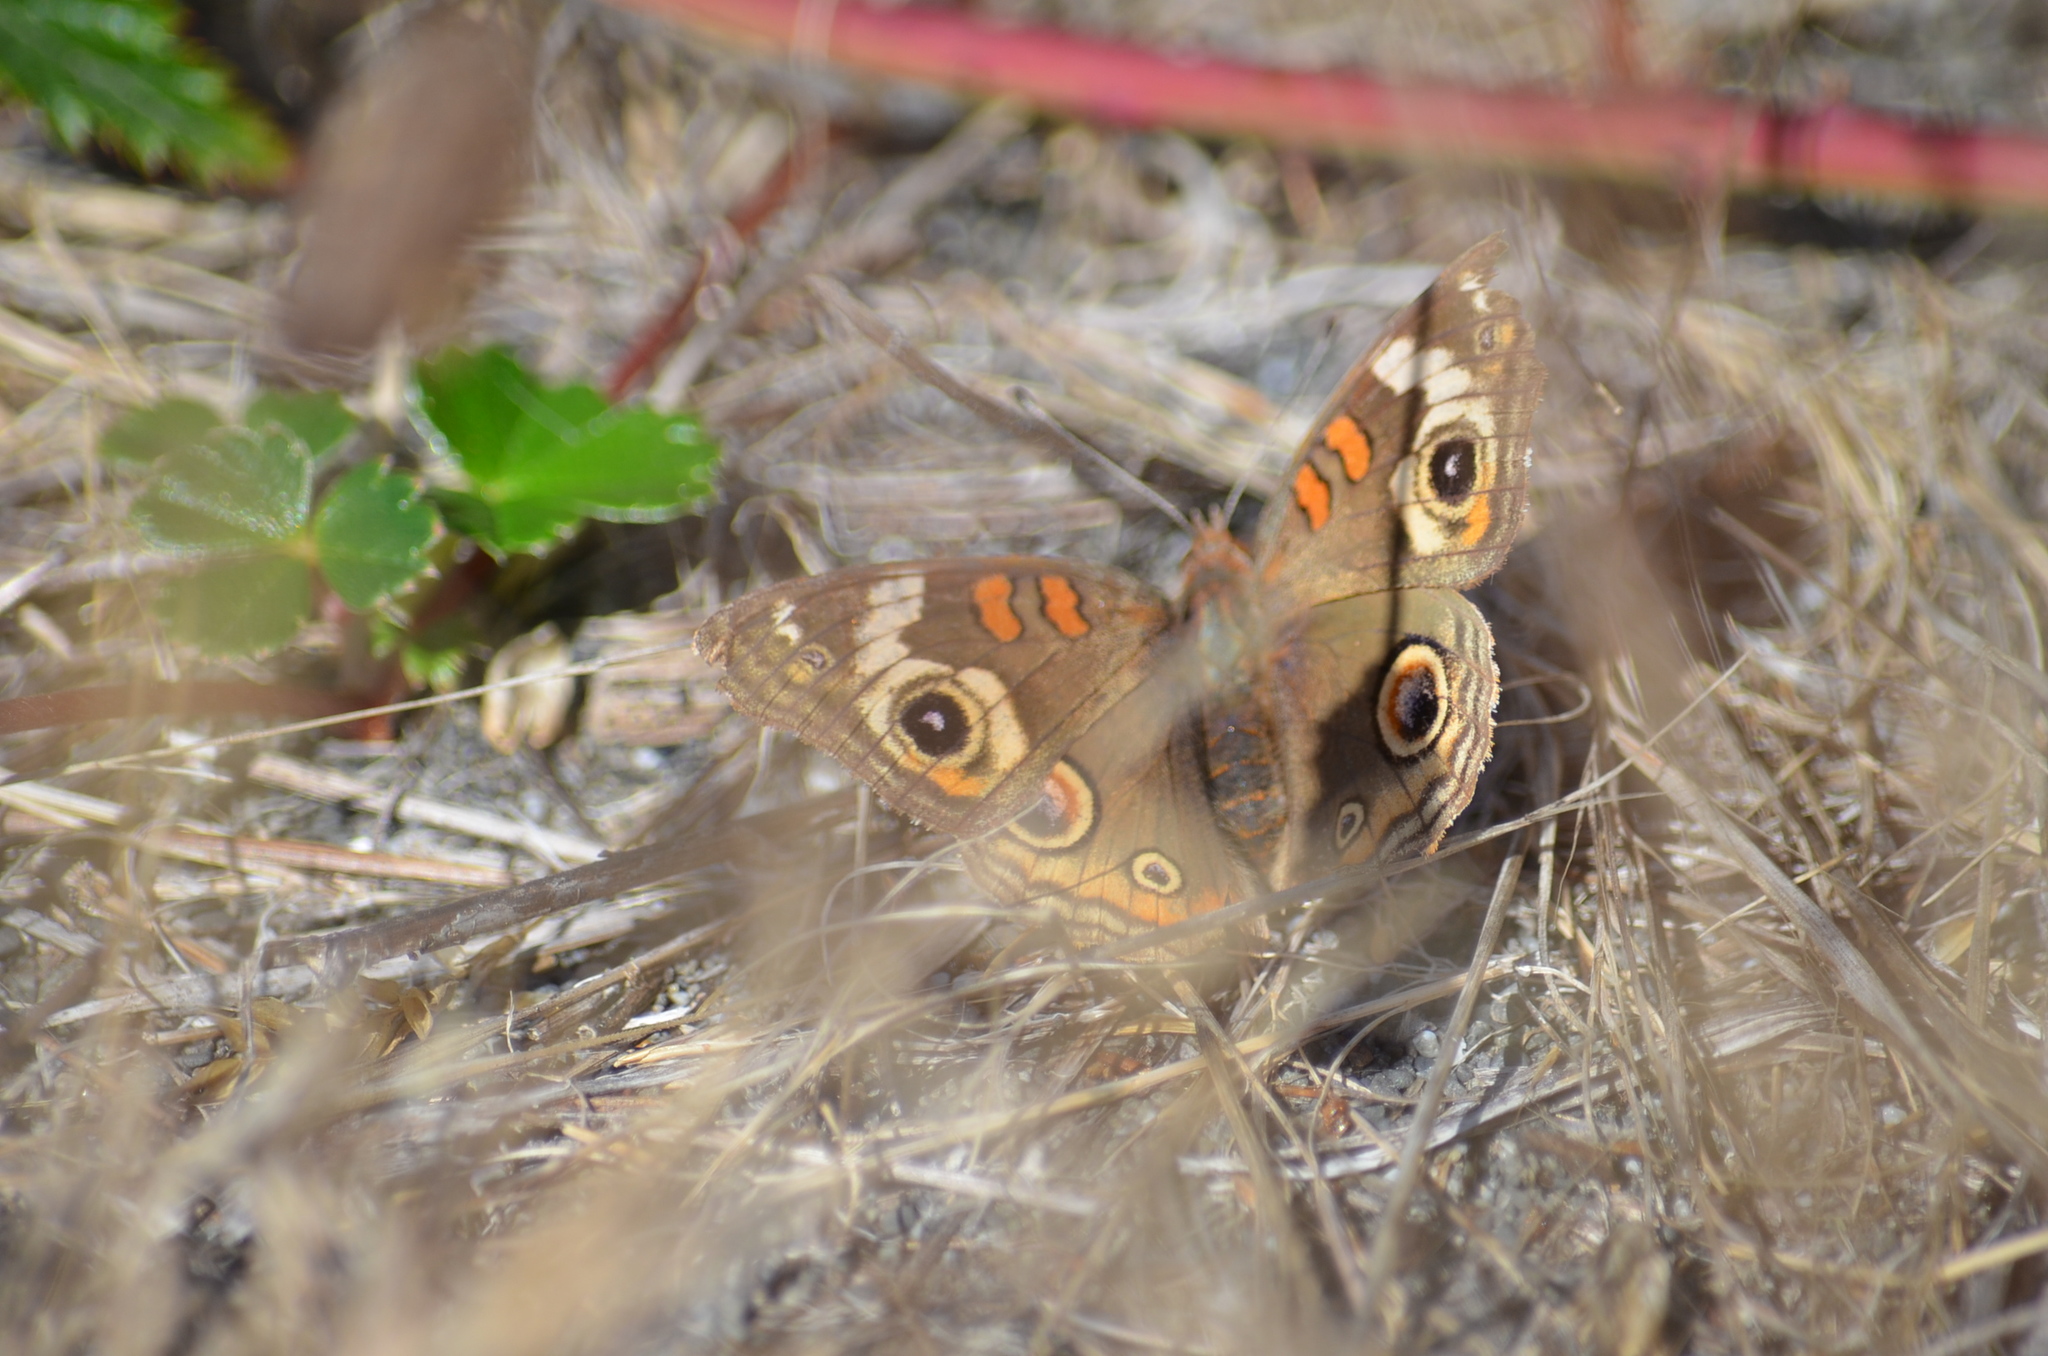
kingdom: Animalia
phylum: Arthropoda
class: Insecta
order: Lepidoptera
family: Nymphalidae
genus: Junonia
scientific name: Junonia grisea
